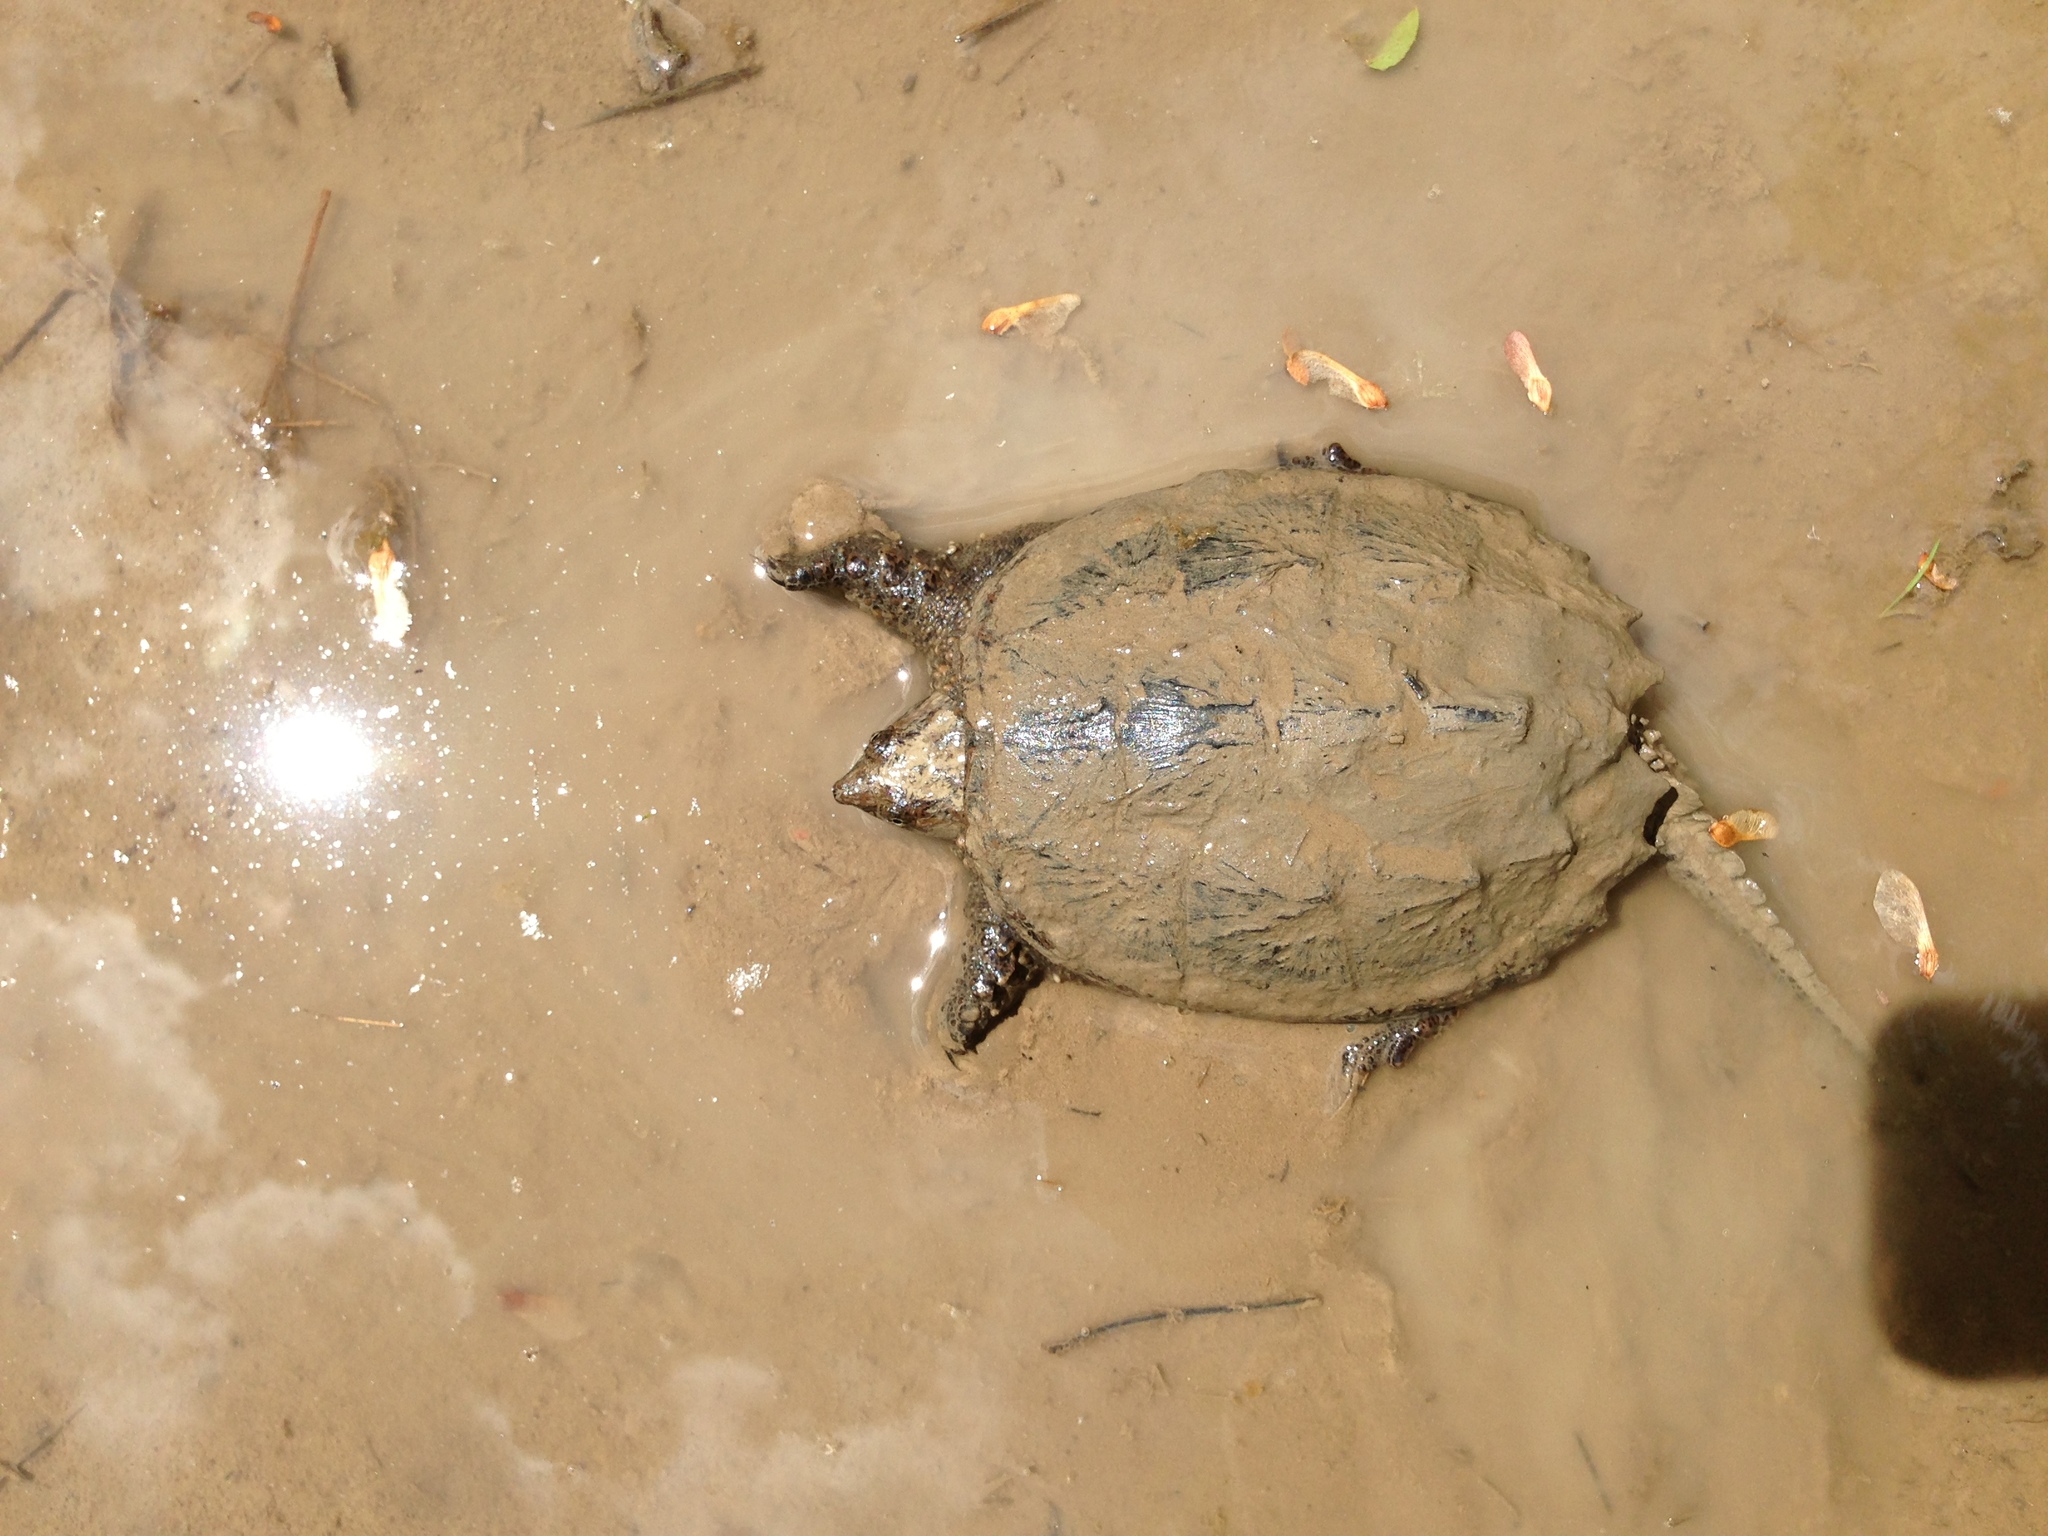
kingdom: Animalia
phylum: Chordata
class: Testudines
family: Chelydridae
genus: Chelydra
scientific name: Chelydra serpentina
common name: Common snapping turtle
